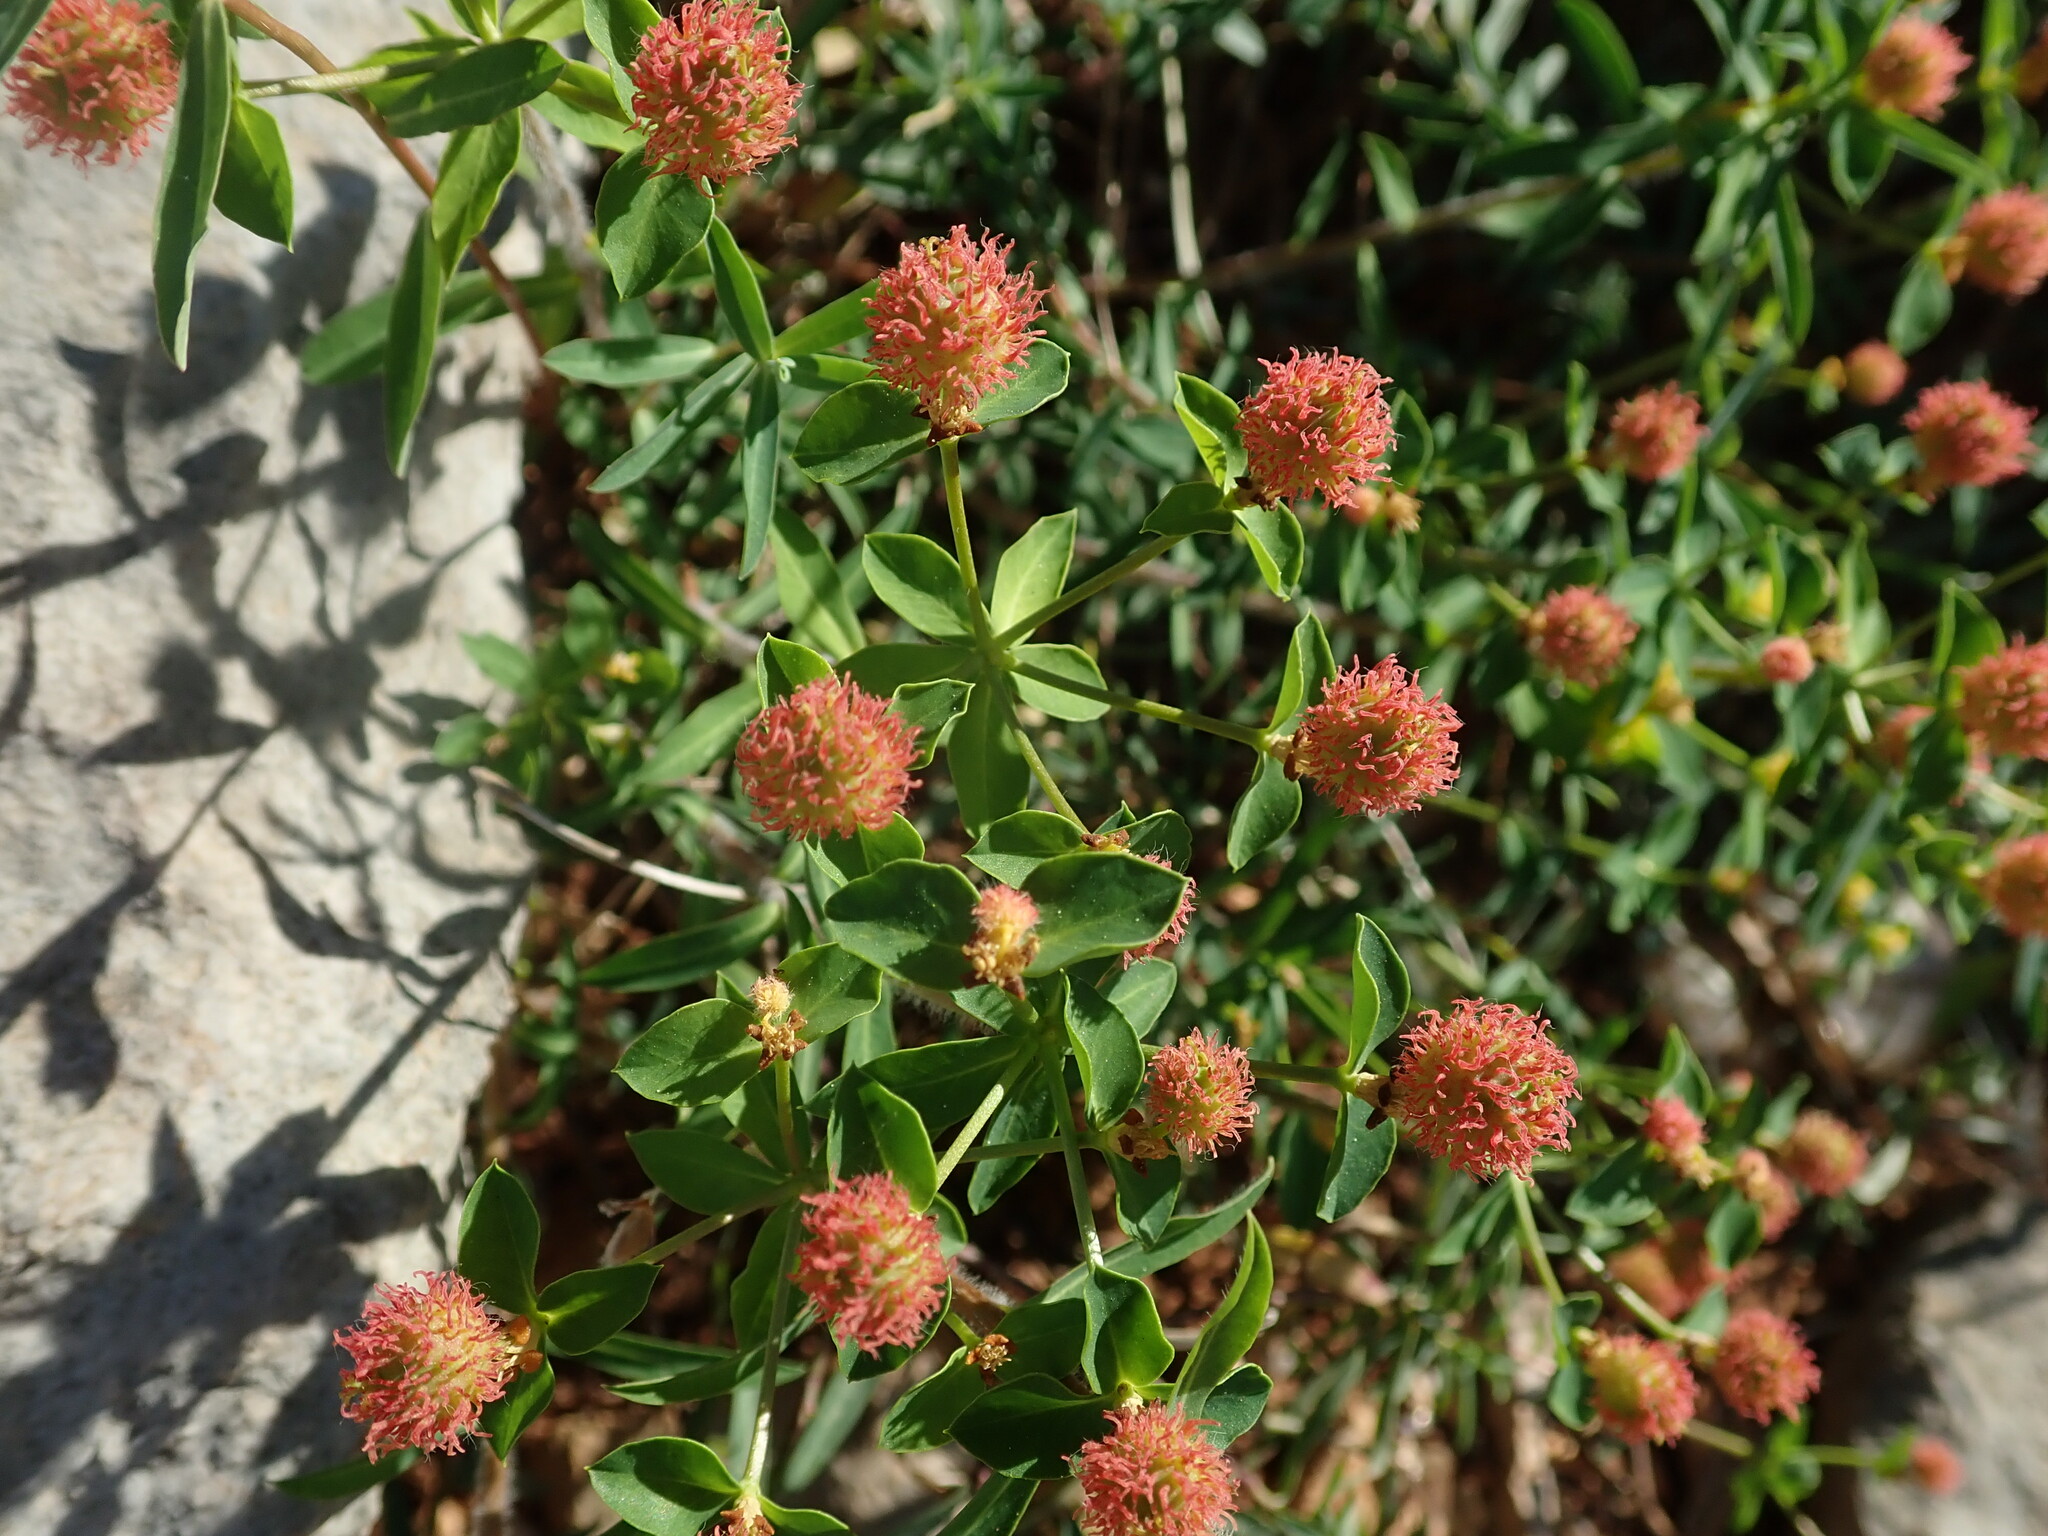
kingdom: Plantae
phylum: Tracheophyta
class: Magnoliopsida
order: Malpighiales
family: Euphorbiaceae
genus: Euphorbia
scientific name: Euphorbia fragifera
